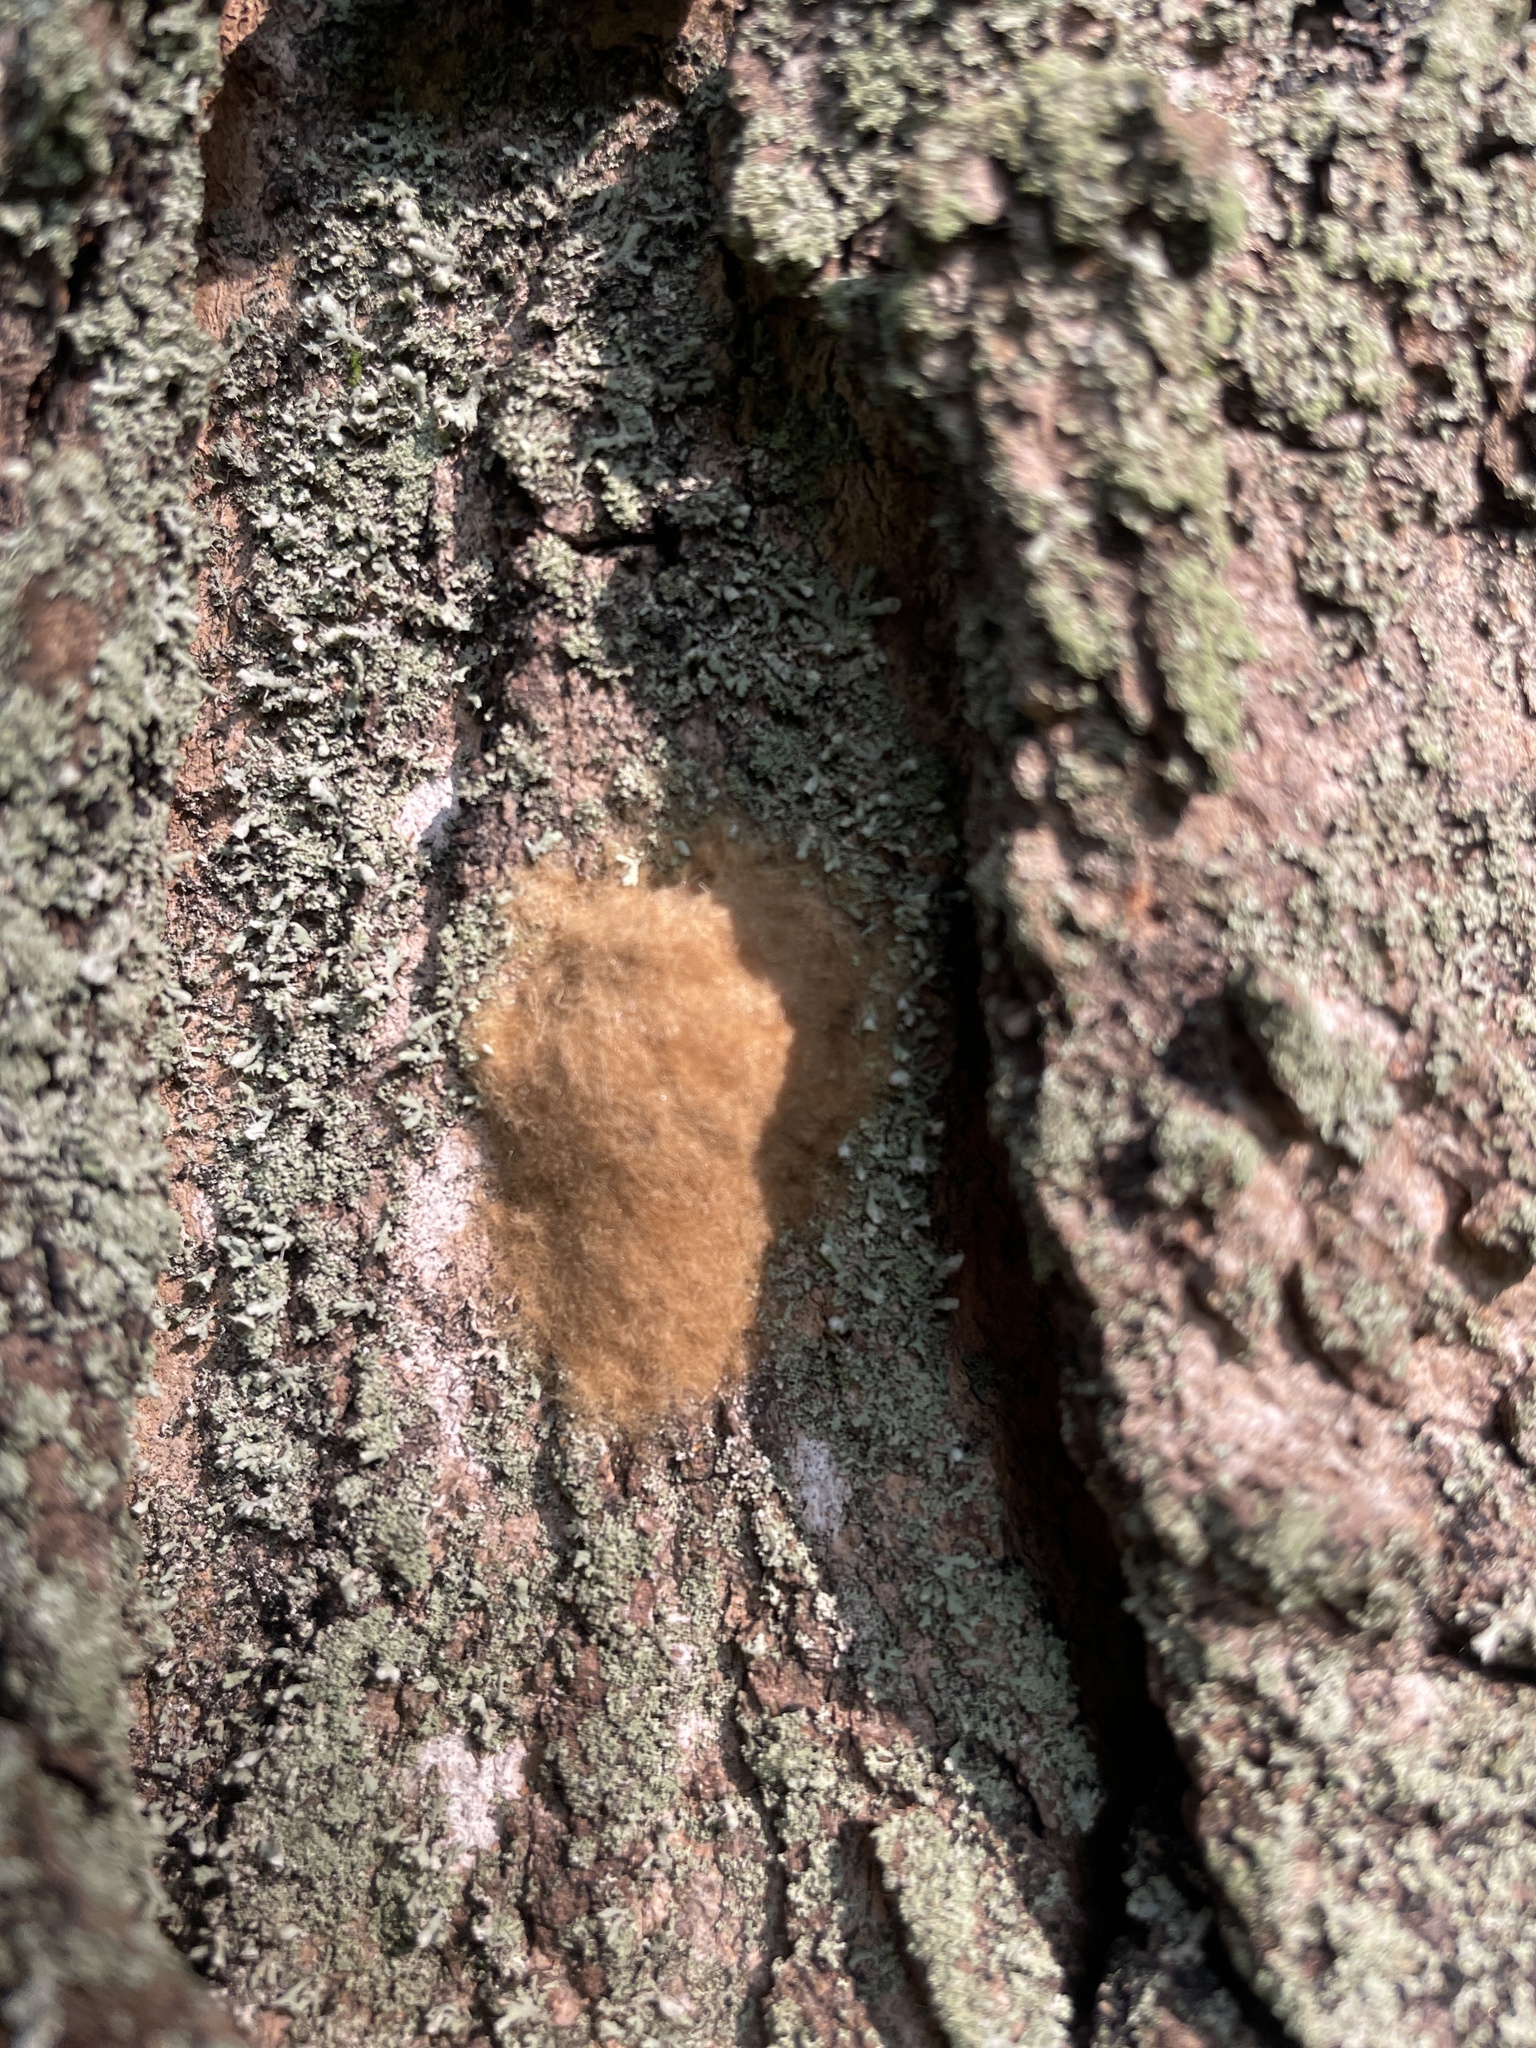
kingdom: Animalia
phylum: Arthropoda
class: Insecta
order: Lepidoptera
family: Erebidae
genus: Lymantria
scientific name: Lymantria dispar
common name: Gypsy moth
